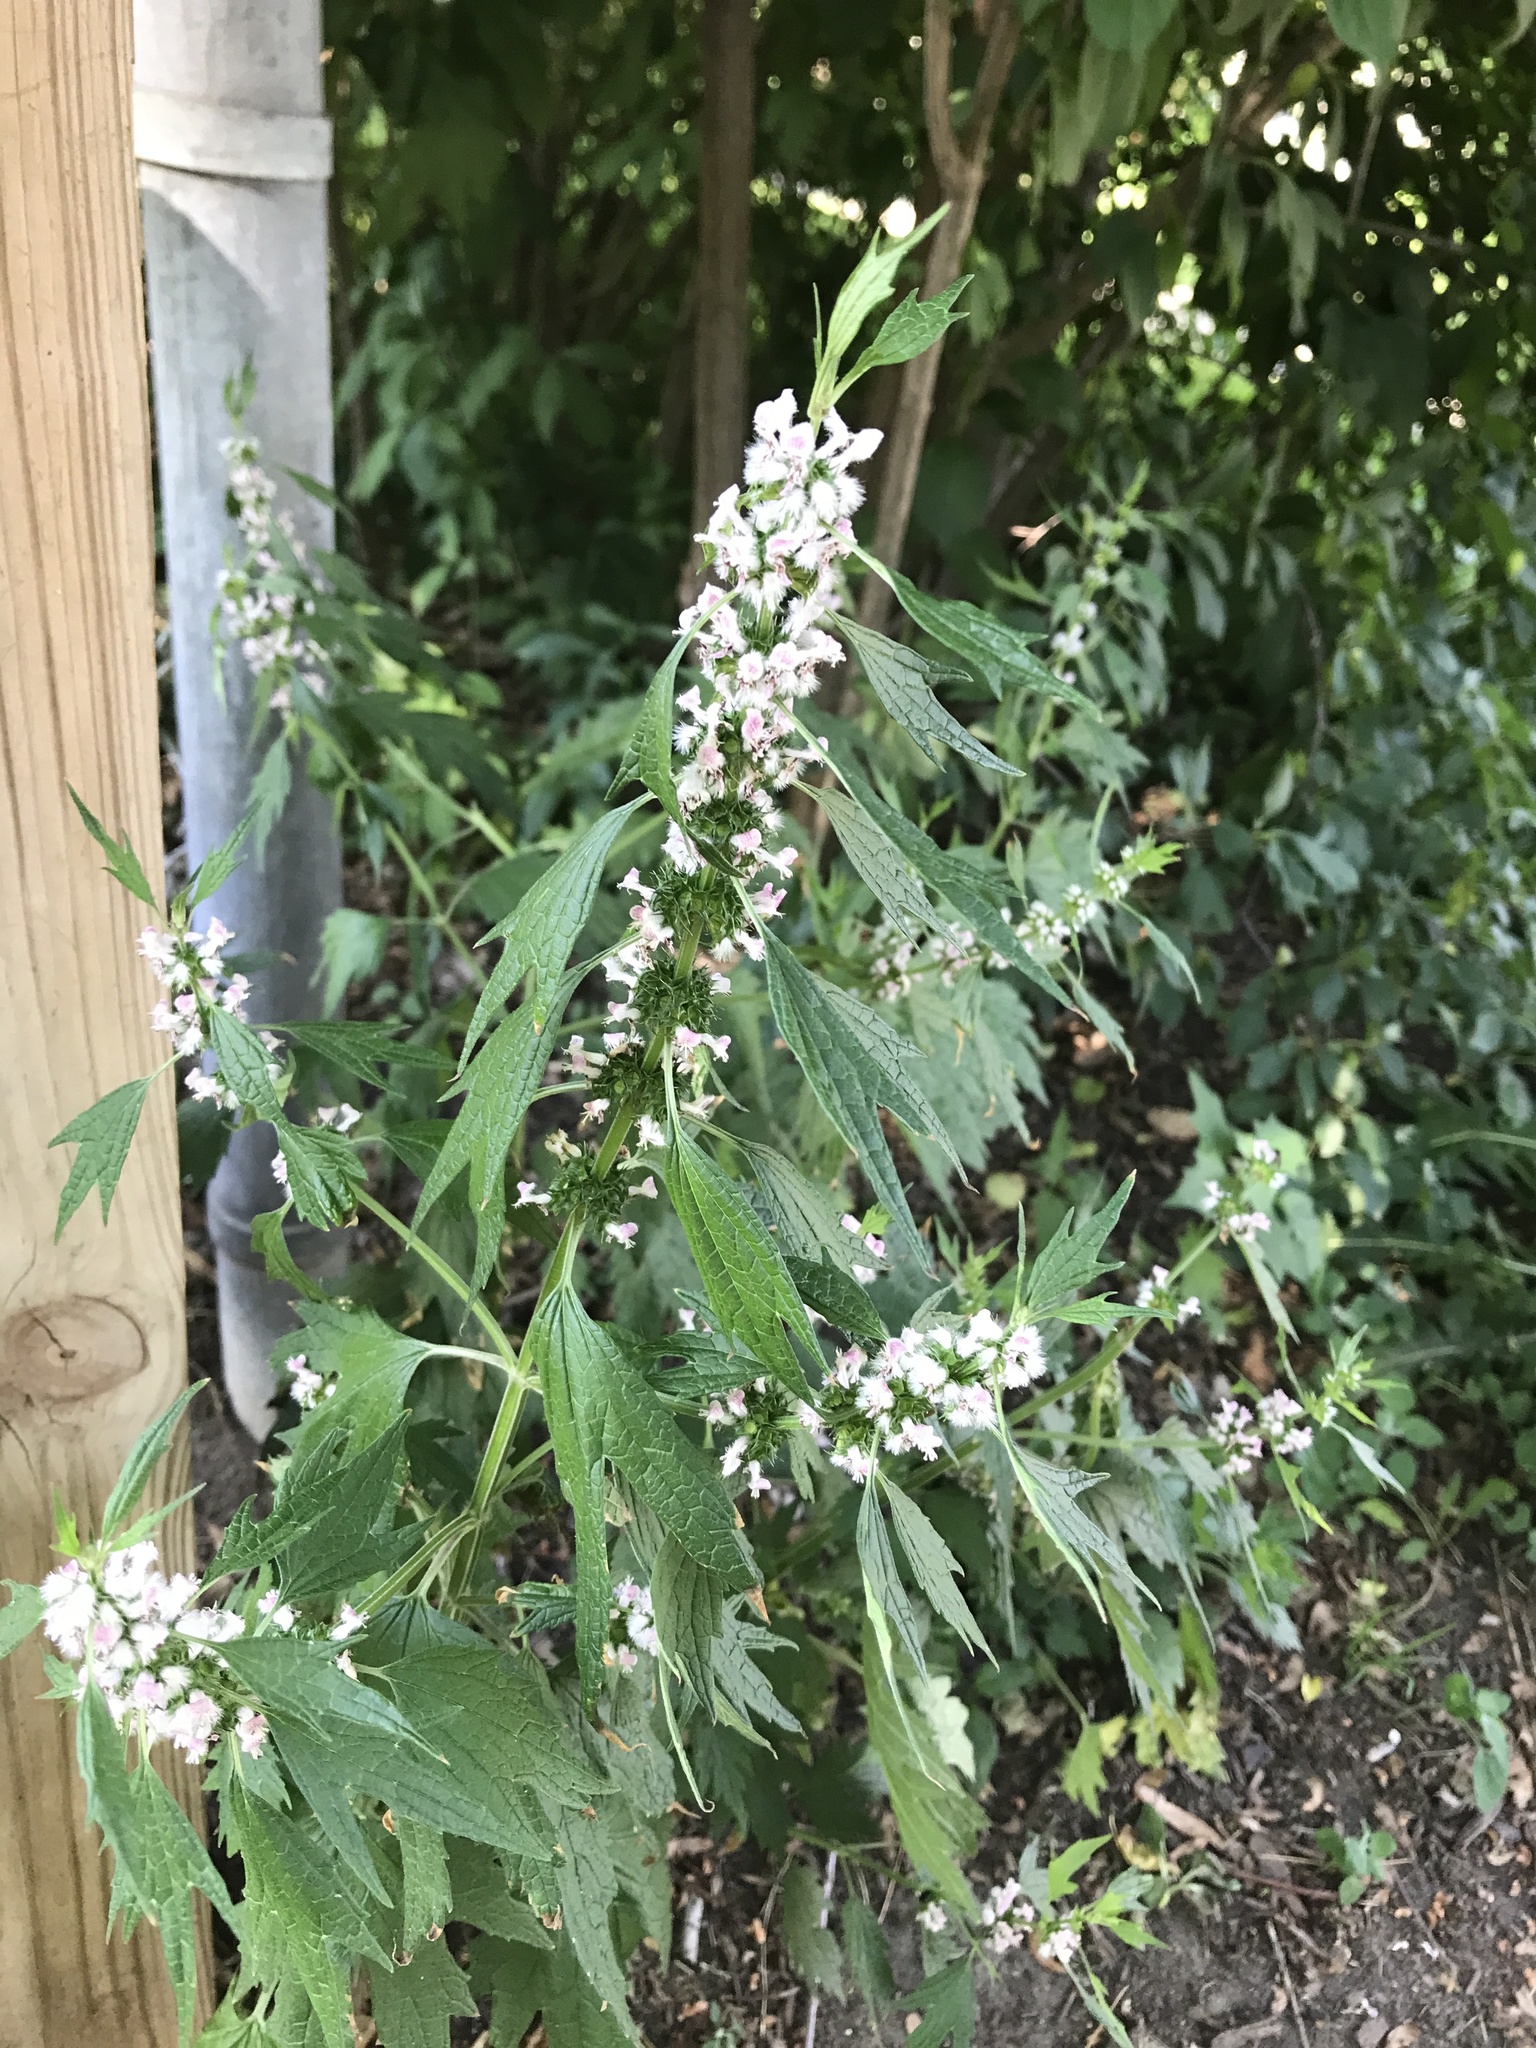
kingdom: Plantae
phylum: Tracheophyta
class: Magnoliopsida
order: Lamiales
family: Lamiaceae
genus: Leonurus
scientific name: Leonurus cardiaca
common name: Motherwort
